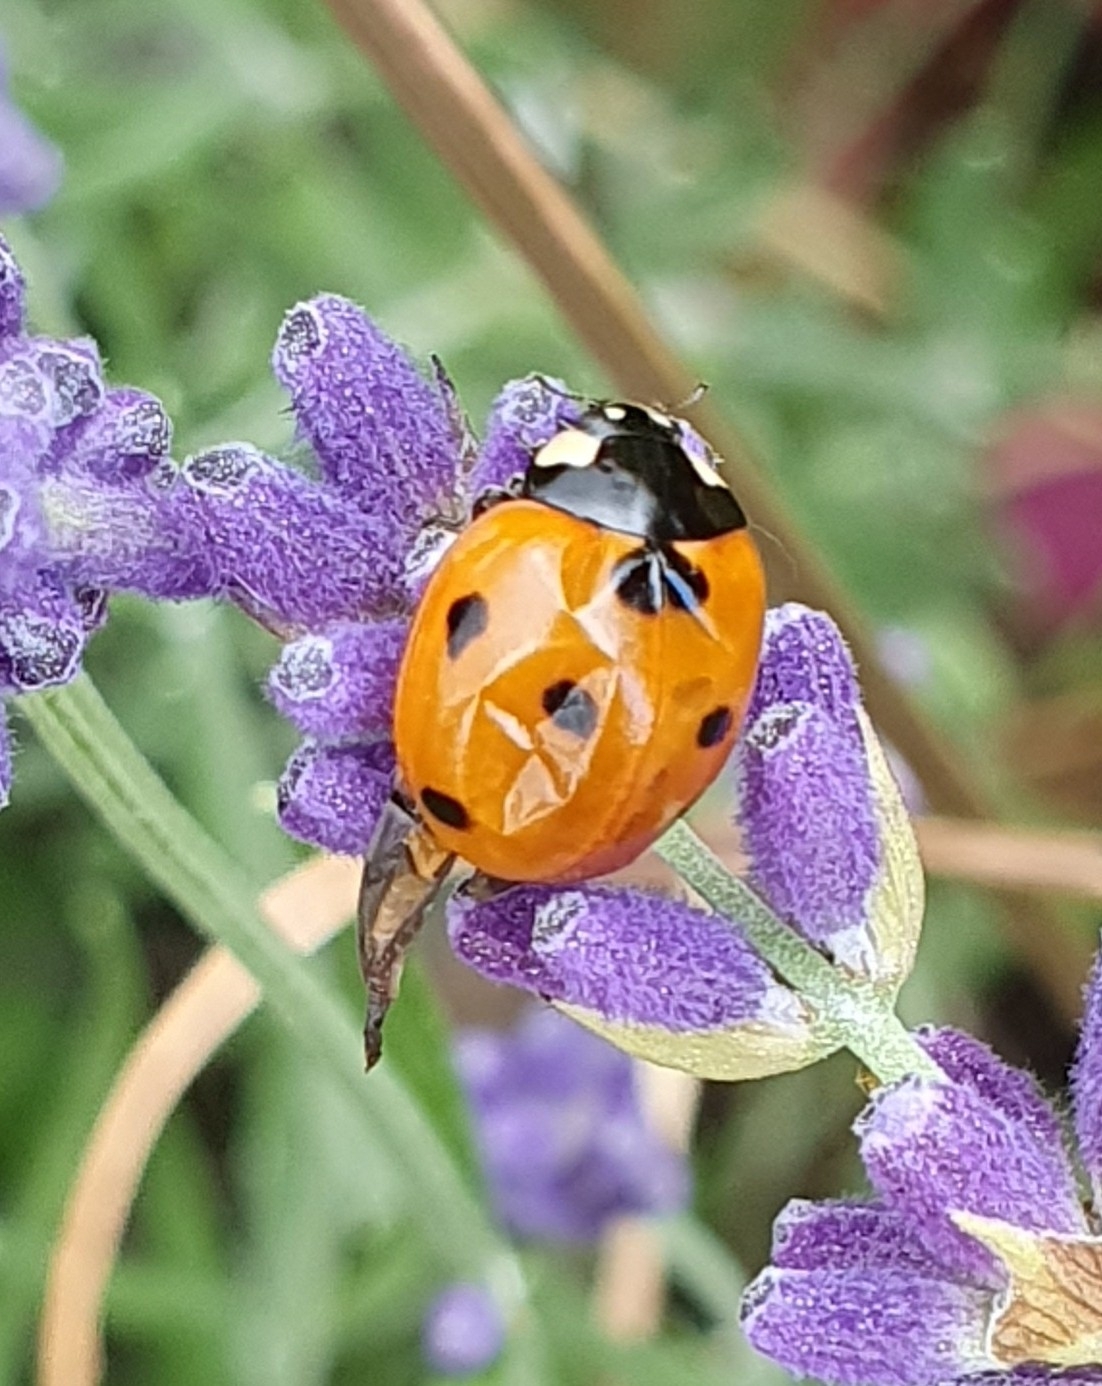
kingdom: Animalia
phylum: Arthropoda
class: Insecta
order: Coleoptera
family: Coccinellidae
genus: Coccinella
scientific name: Coccinella septempunctata
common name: Sevenspotted lady beetle
